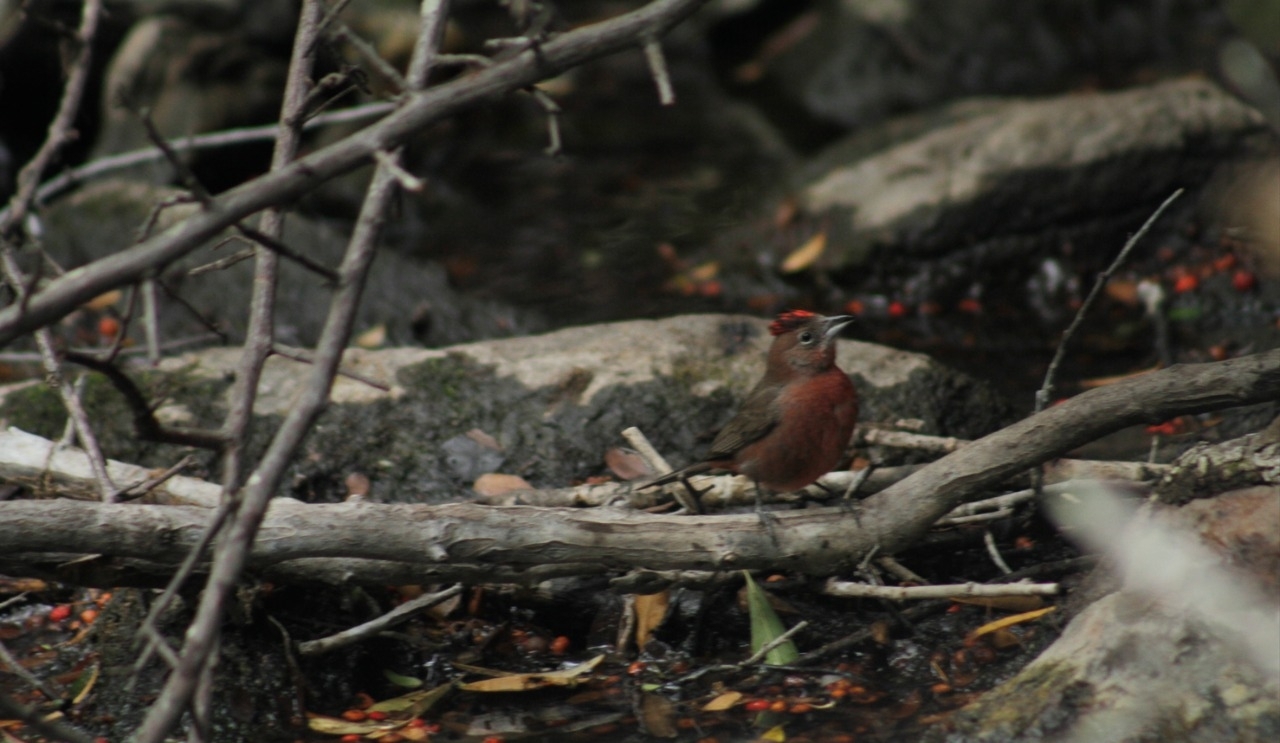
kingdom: Animalia
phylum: Chordata
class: Aves
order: Passeriformes
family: Thraupidae
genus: Coryphospingus
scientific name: Coryphospingus cucullatus
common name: Red pileated finch
